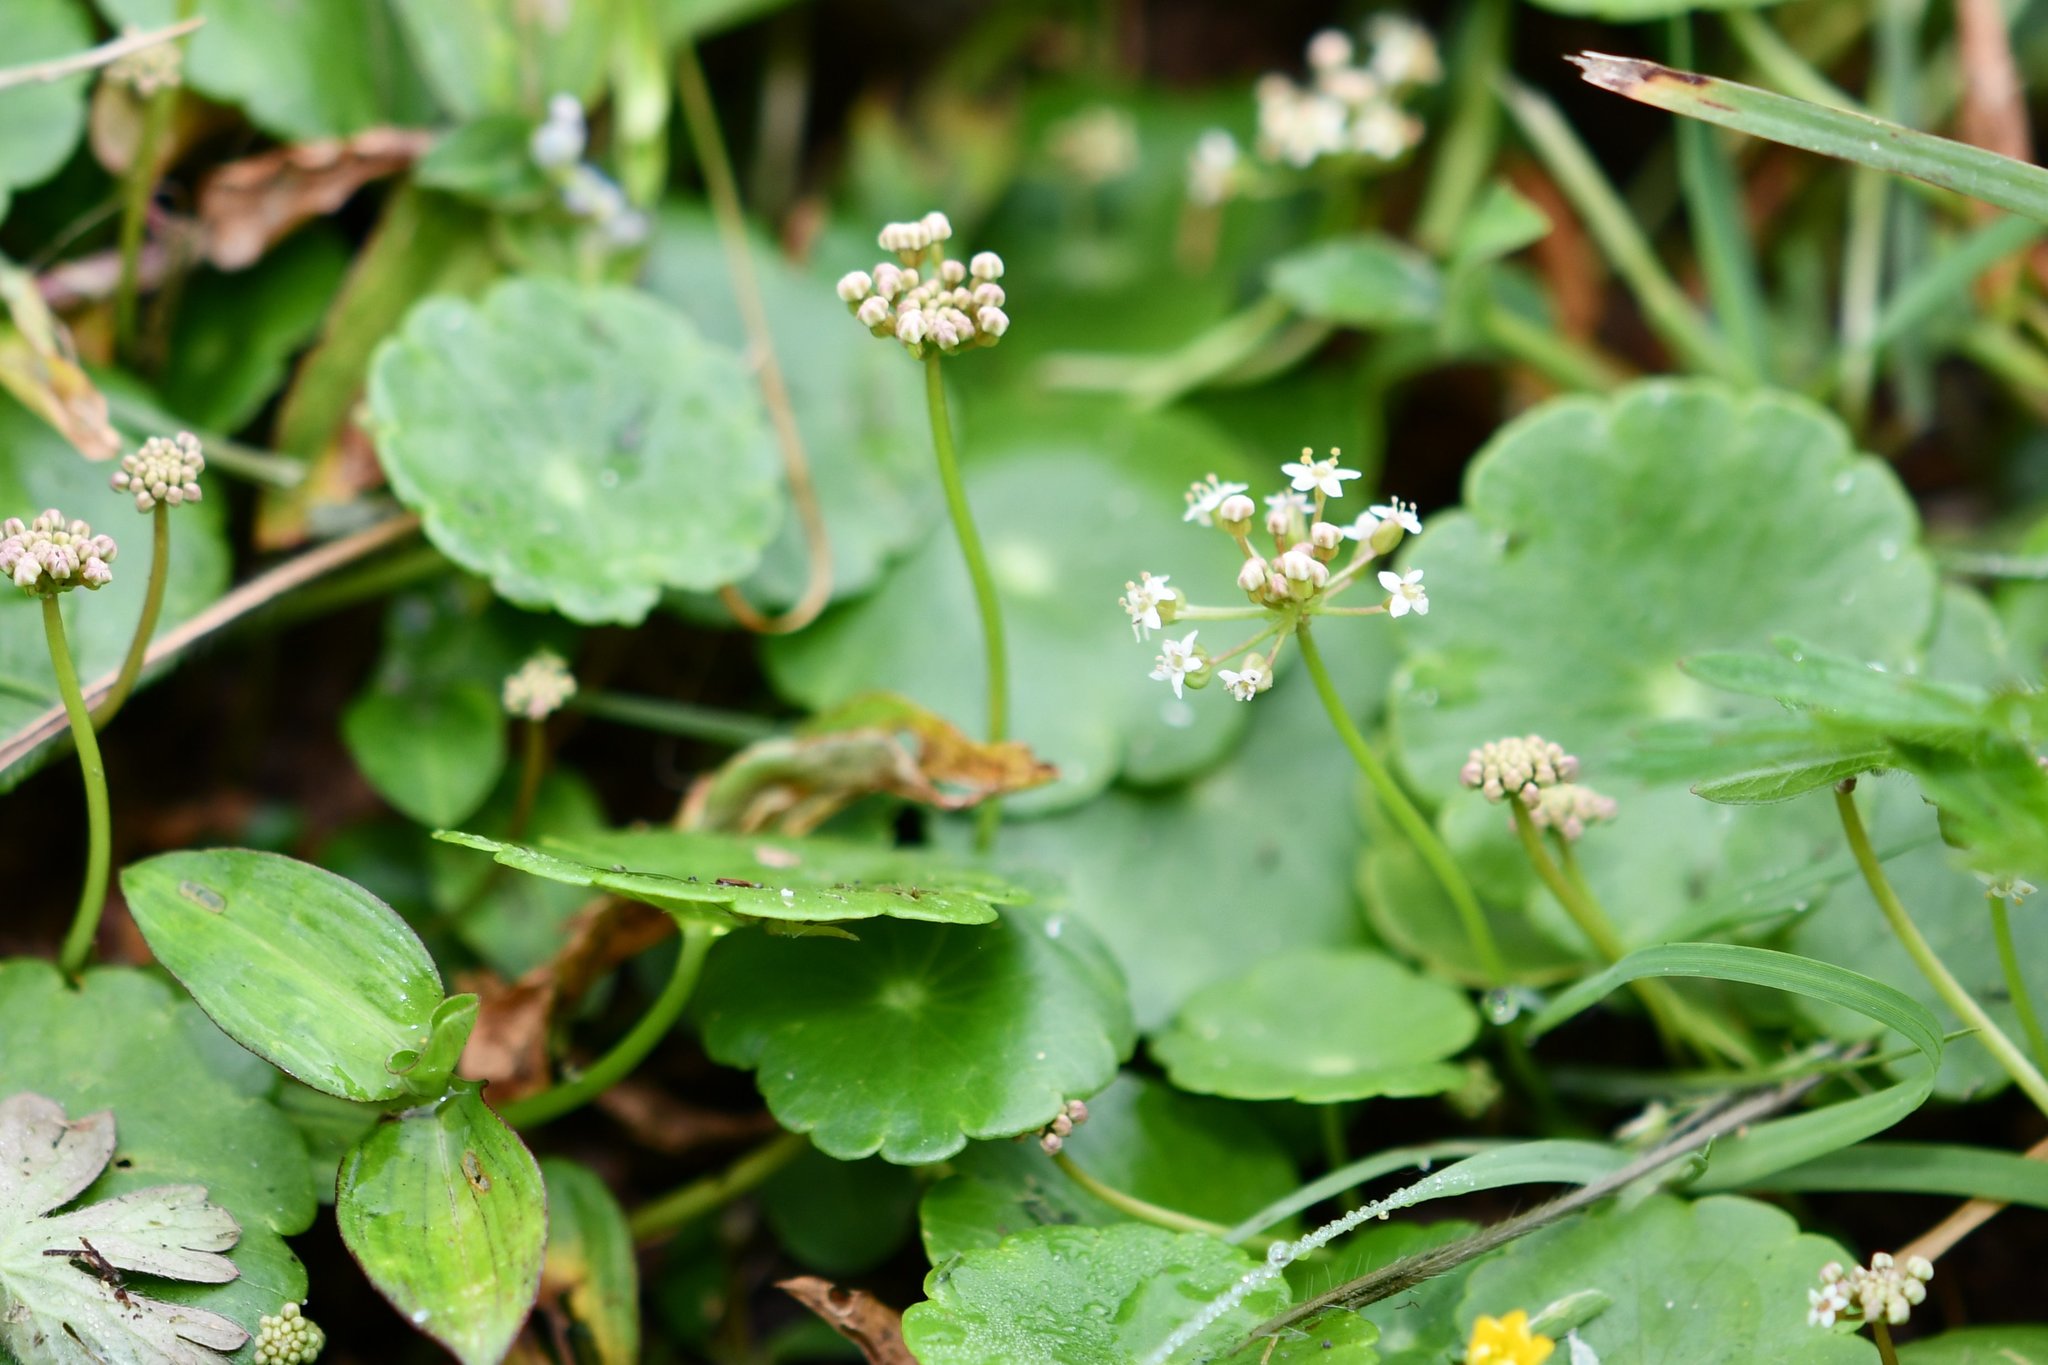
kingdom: Plantae
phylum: Tracheophyta
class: Magnoliopsida
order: Apiales
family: Araliaceae
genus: Hydrocotyle
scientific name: Hydrocotyle umbellata
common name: Water pennywort
